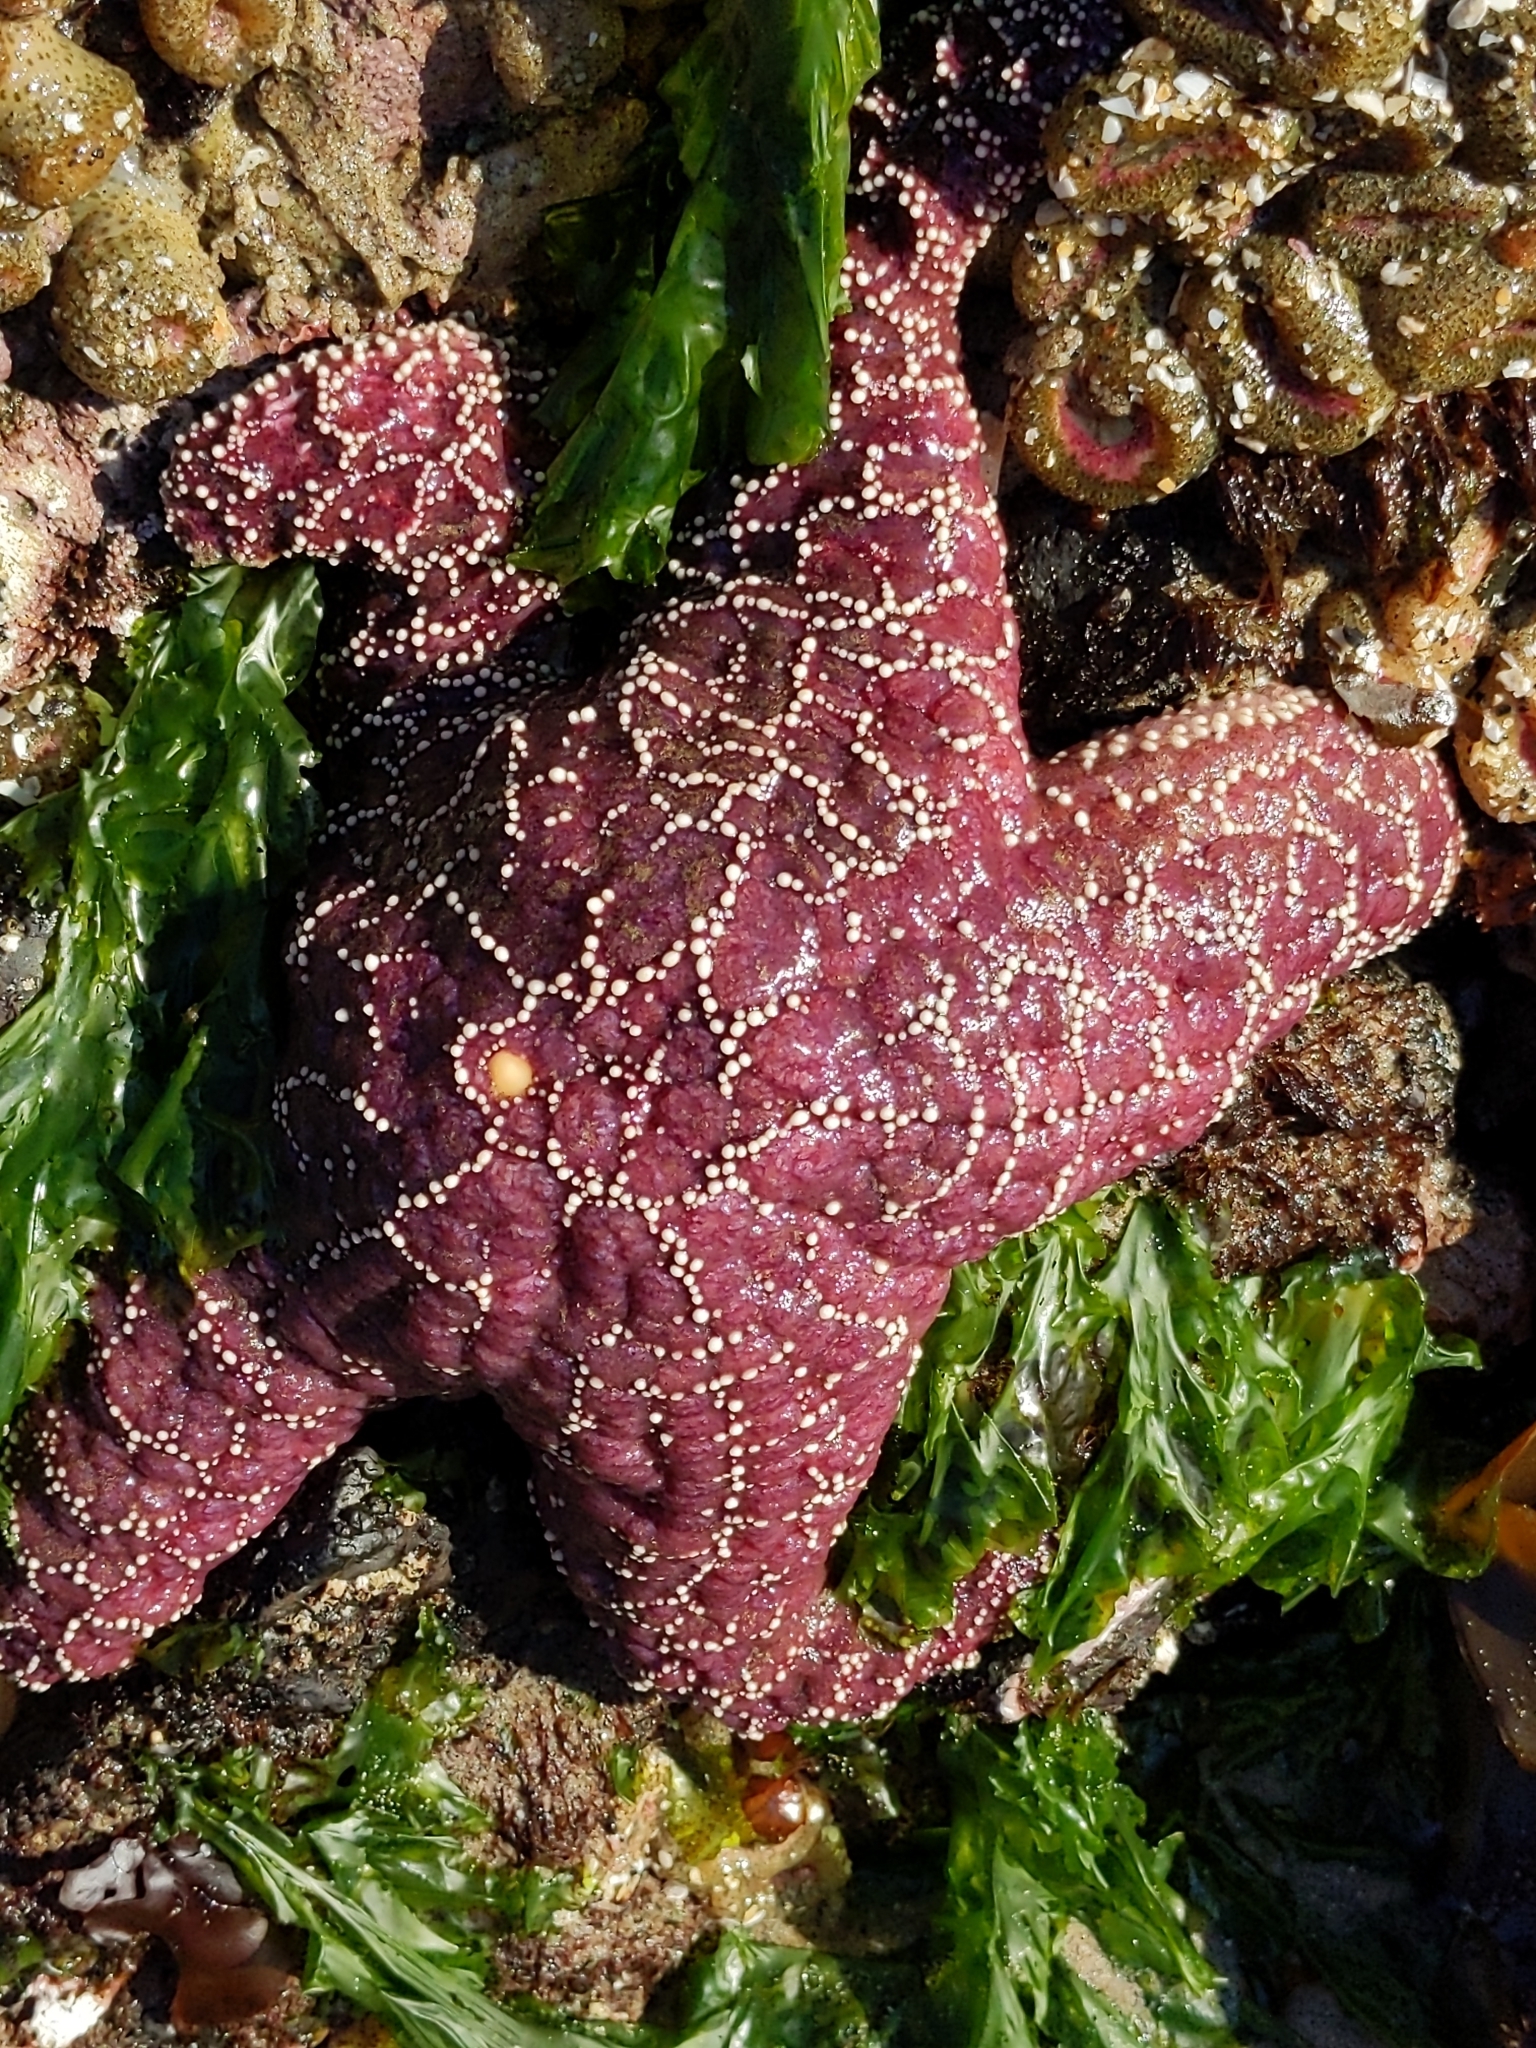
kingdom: Animalia
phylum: Echinodermata
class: Asteroidea
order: Forcipulatida
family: Asteriidae
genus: Pisaster
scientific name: Pisaster ochraceus
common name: Ochre stars
